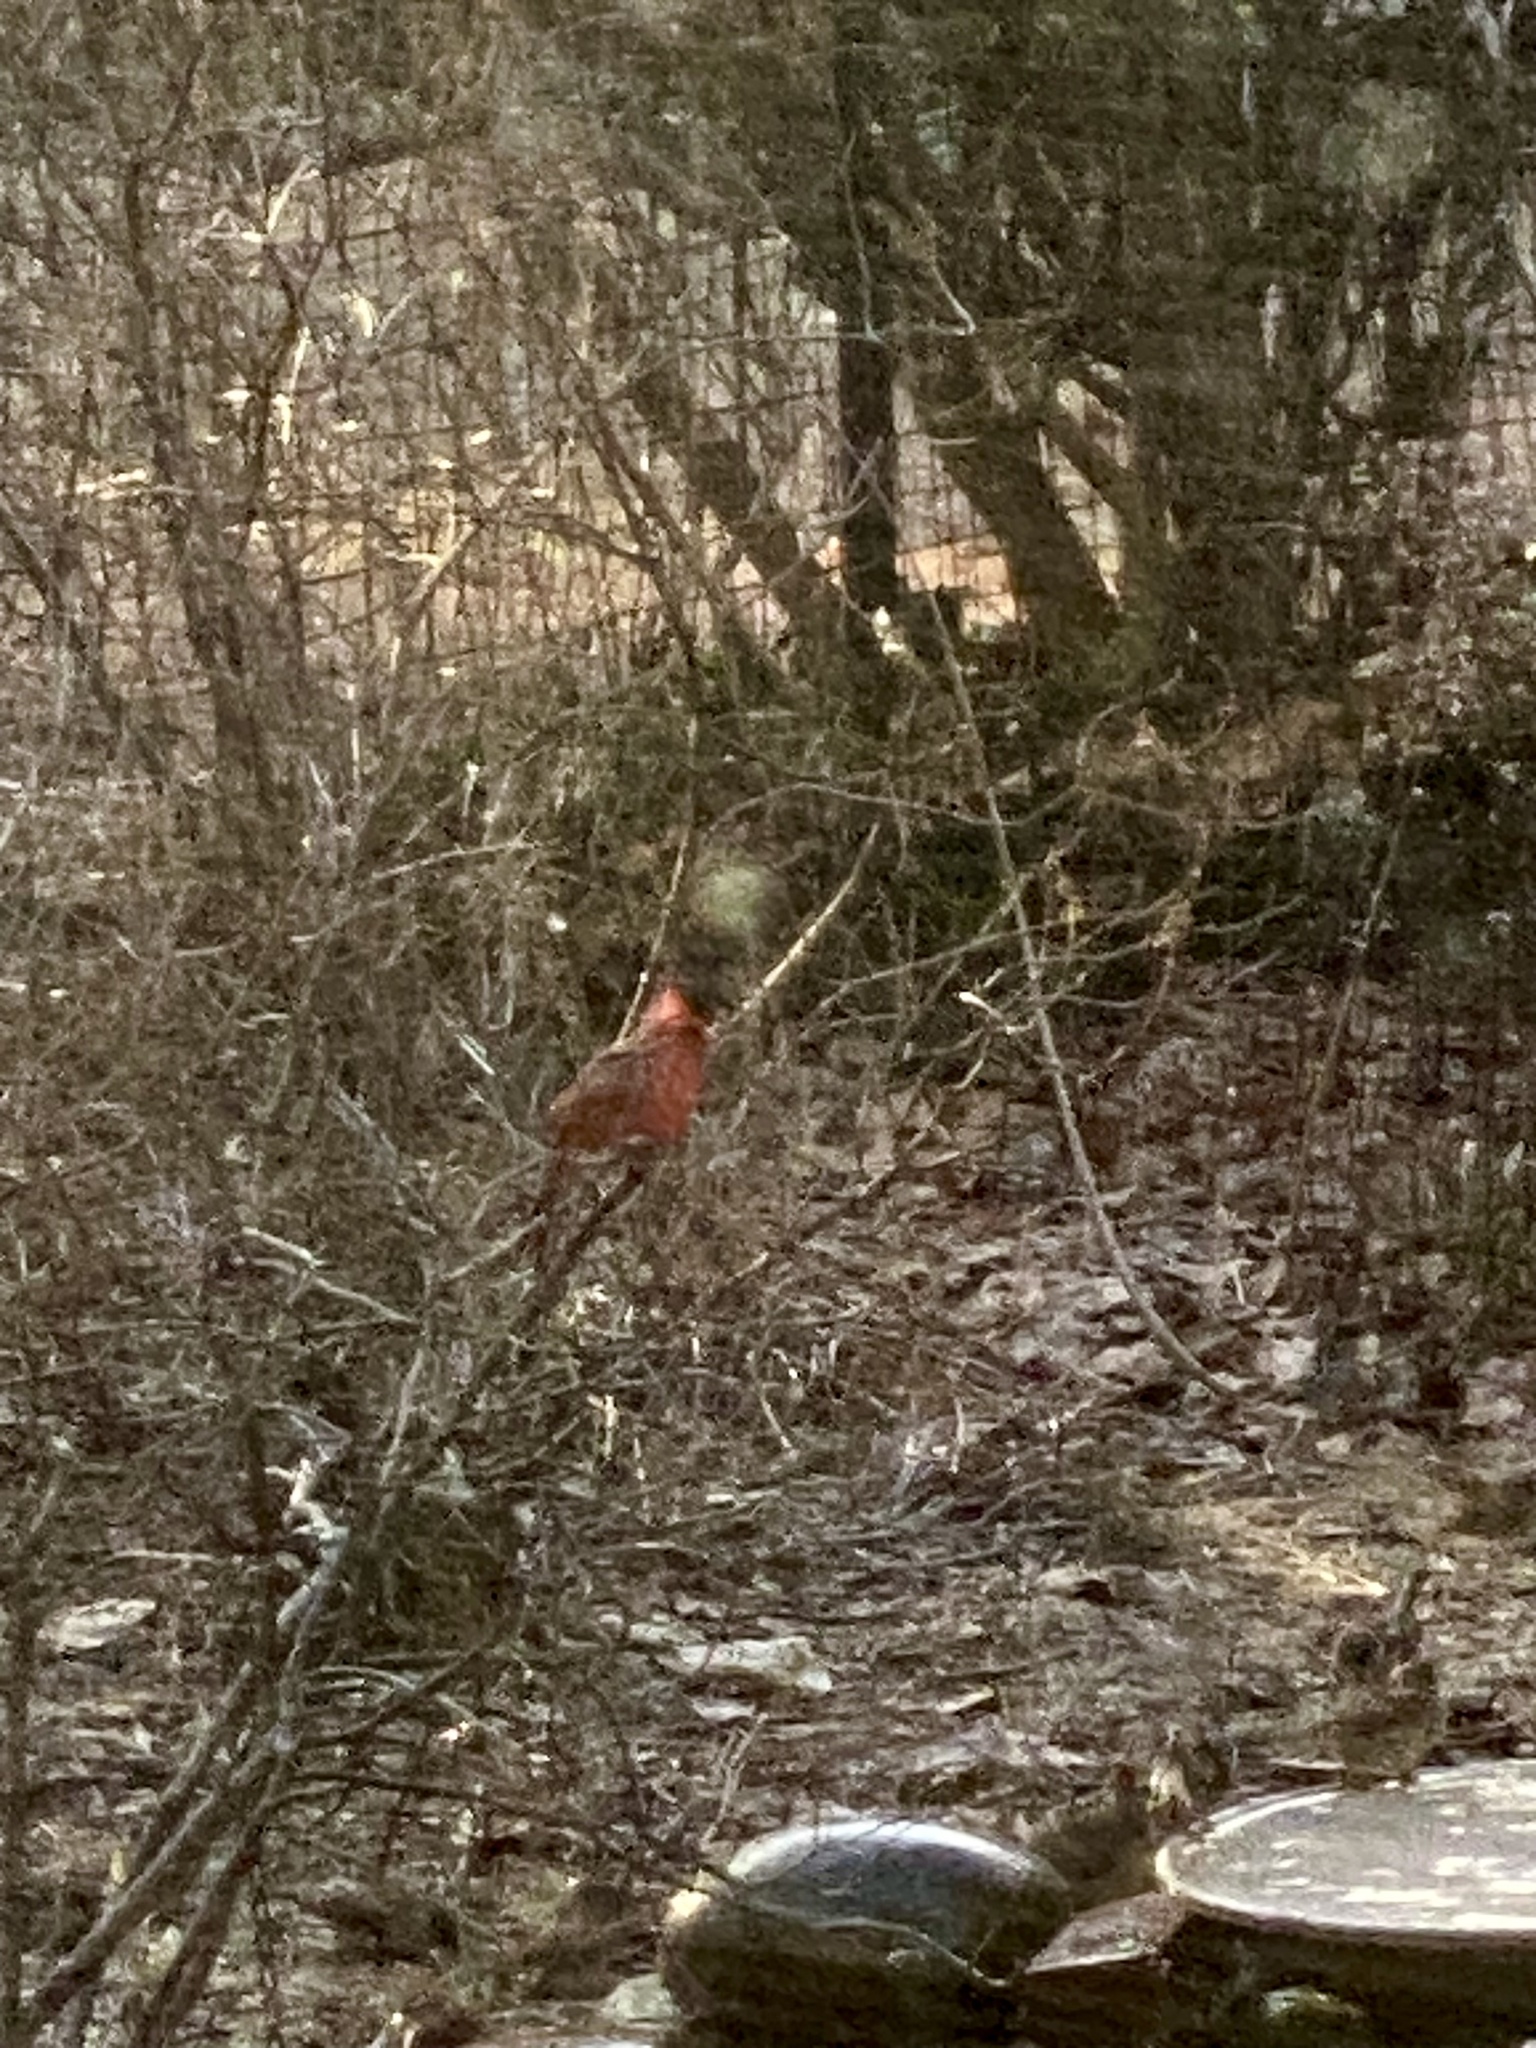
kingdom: Animalia
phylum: Chordata
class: Aves
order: Passeriformes
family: Cardinalidae
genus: Cardinalis
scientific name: Cardinalis cardinalis
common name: Northern cardinal
